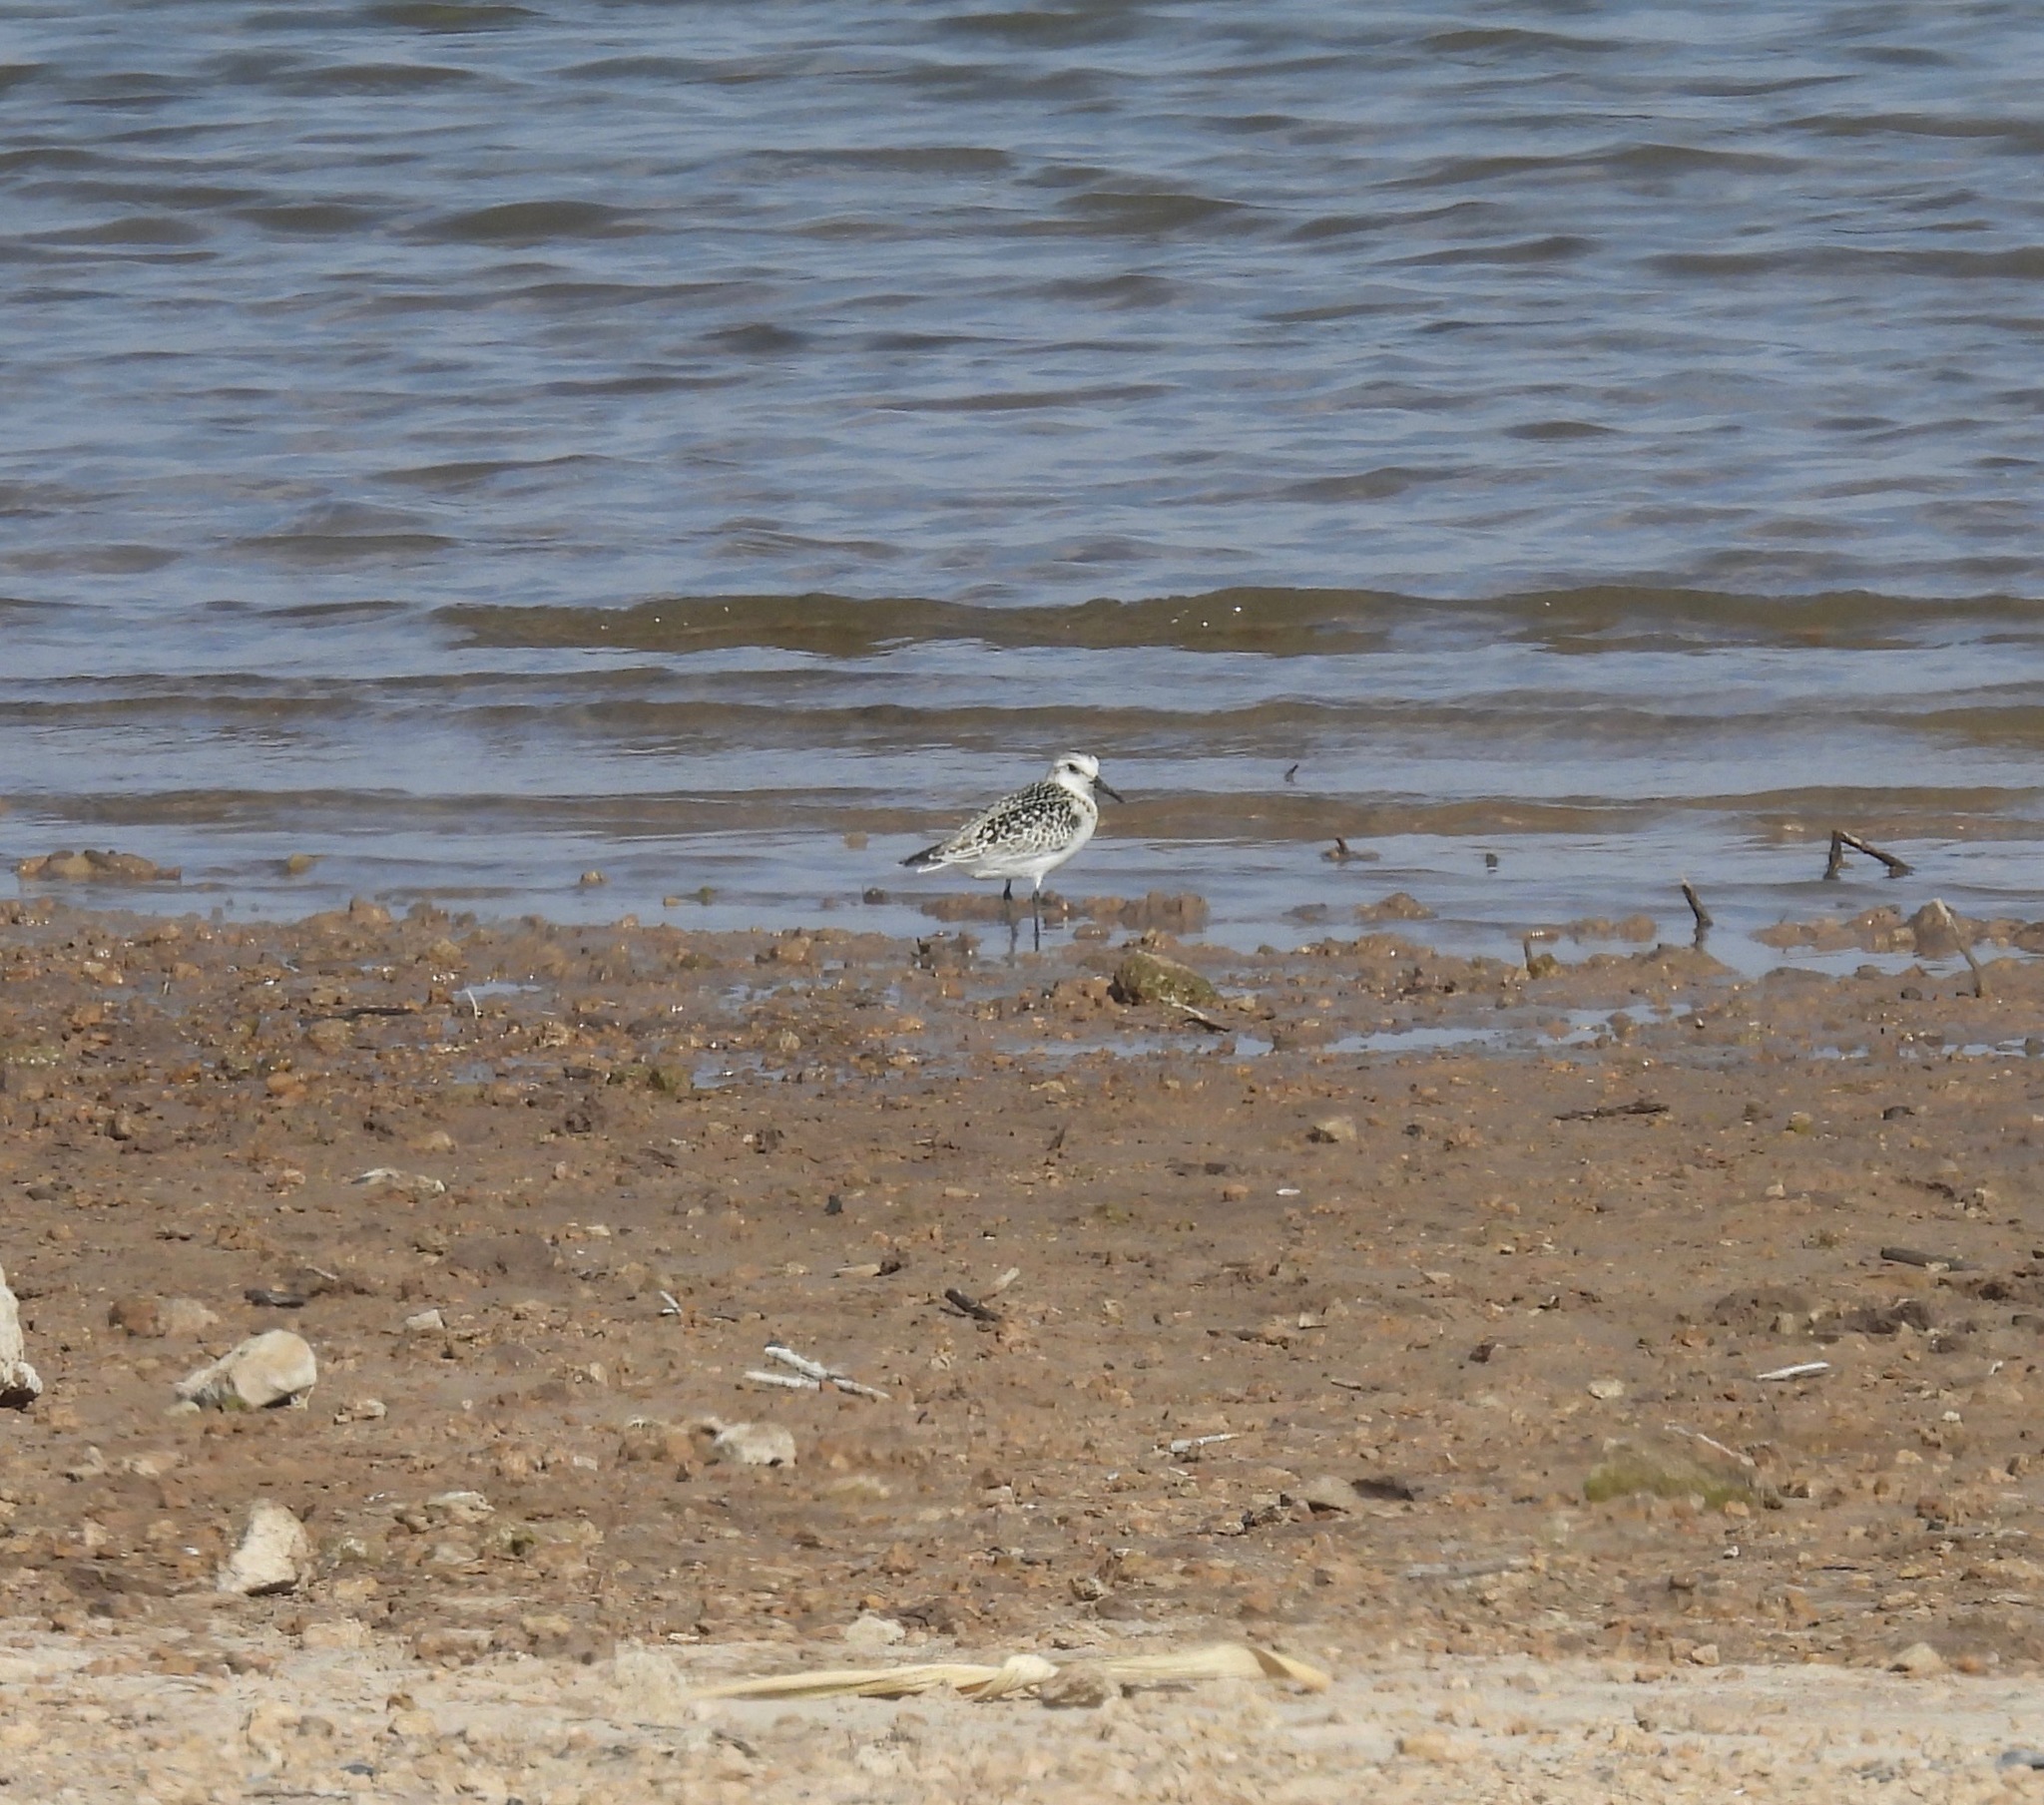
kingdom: Animalia
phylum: Chordata
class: Aves
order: Charadriiformes
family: Scolopacidae
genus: Calidris
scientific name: Calidris alba
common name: Sanderling
